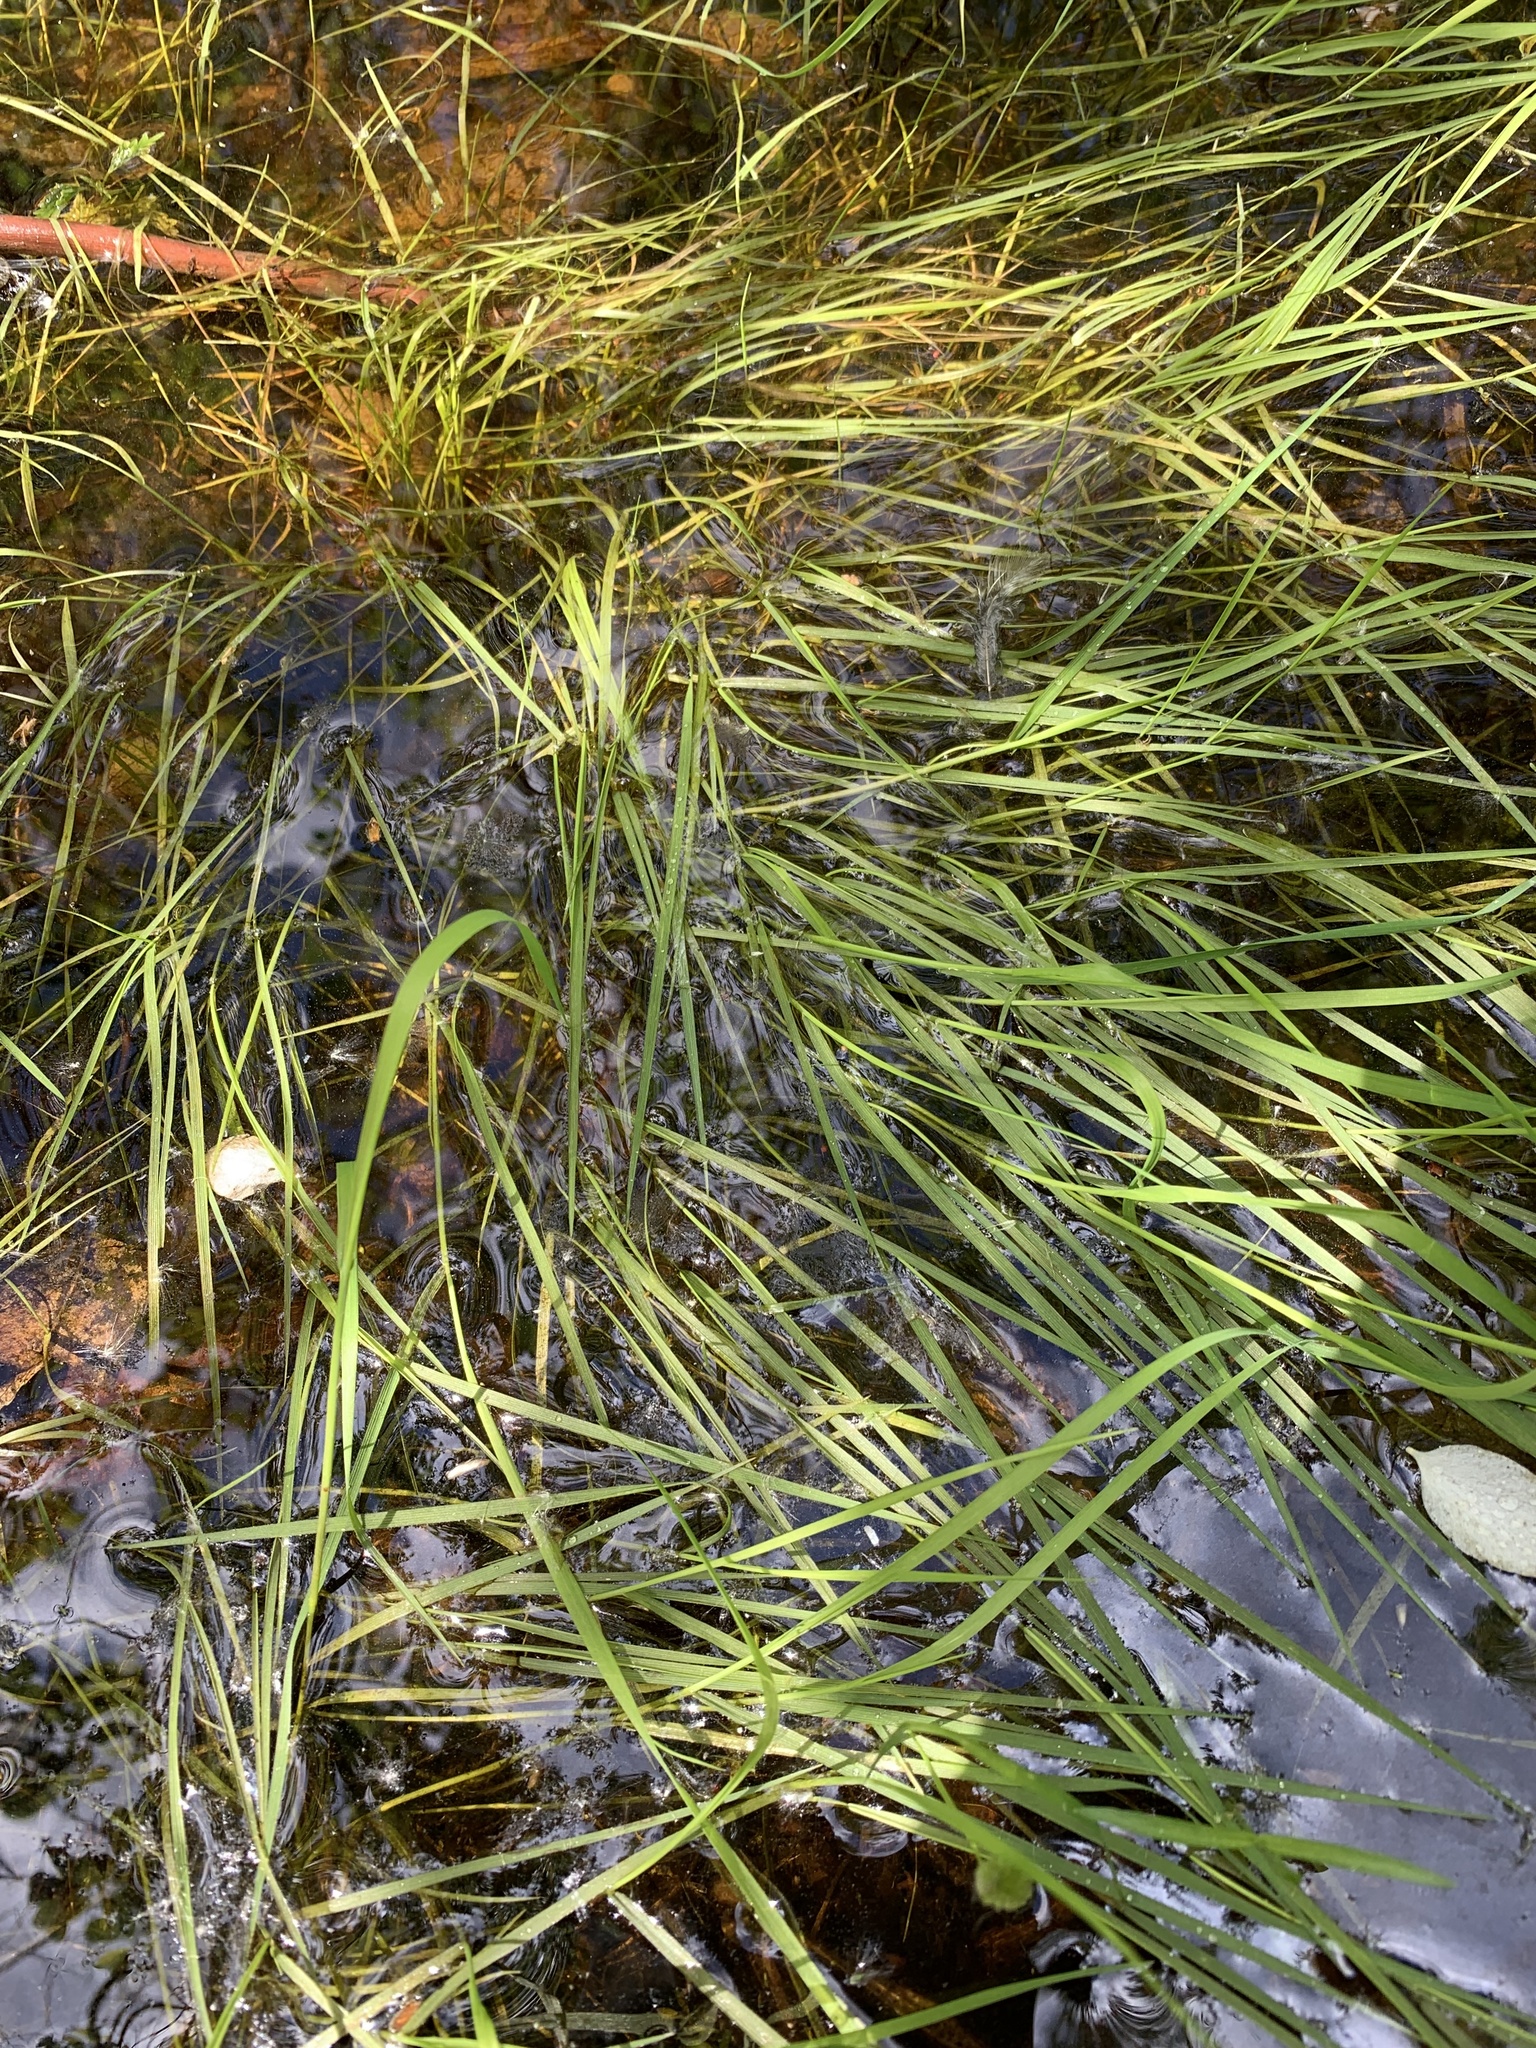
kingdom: Plantae
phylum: Tracheophyta
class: Liliopsida
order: Poales
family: Poaceae
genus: Agrostis
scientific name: Agrostis stolonifera
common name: Creeping bentgrass
